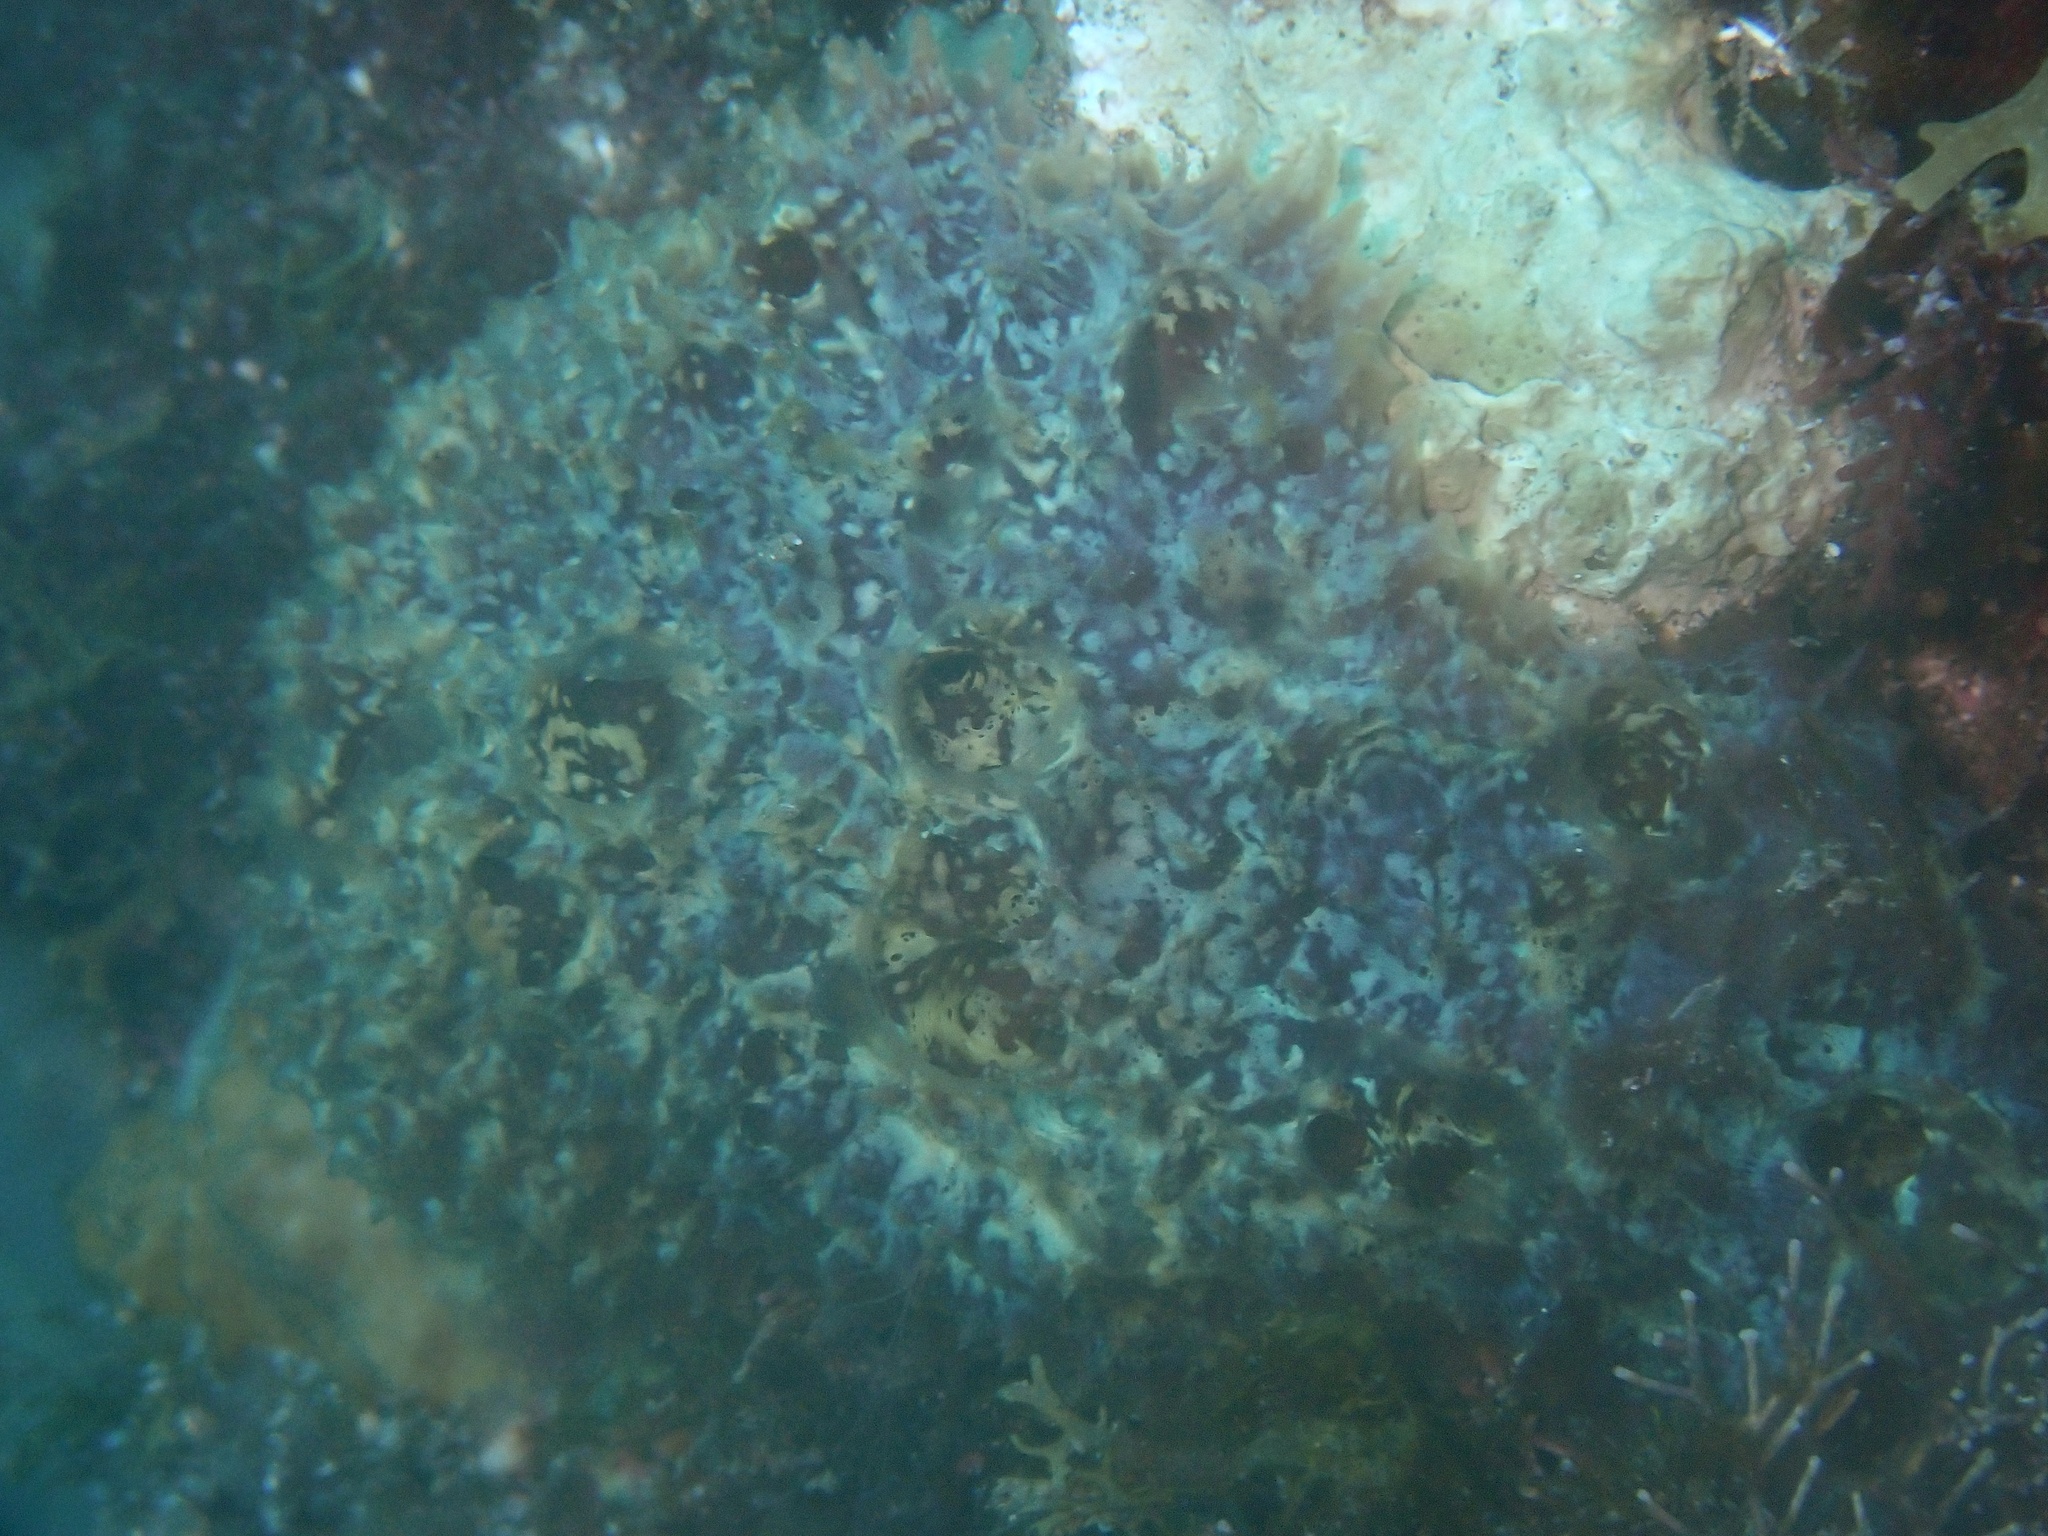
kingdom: Animalia
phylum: Porifera
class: Demospongiae
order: Poecilosclerida
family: Mycalidae
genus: Mycale
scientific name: Mycale laxissima
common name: Strawberry vase sponge
